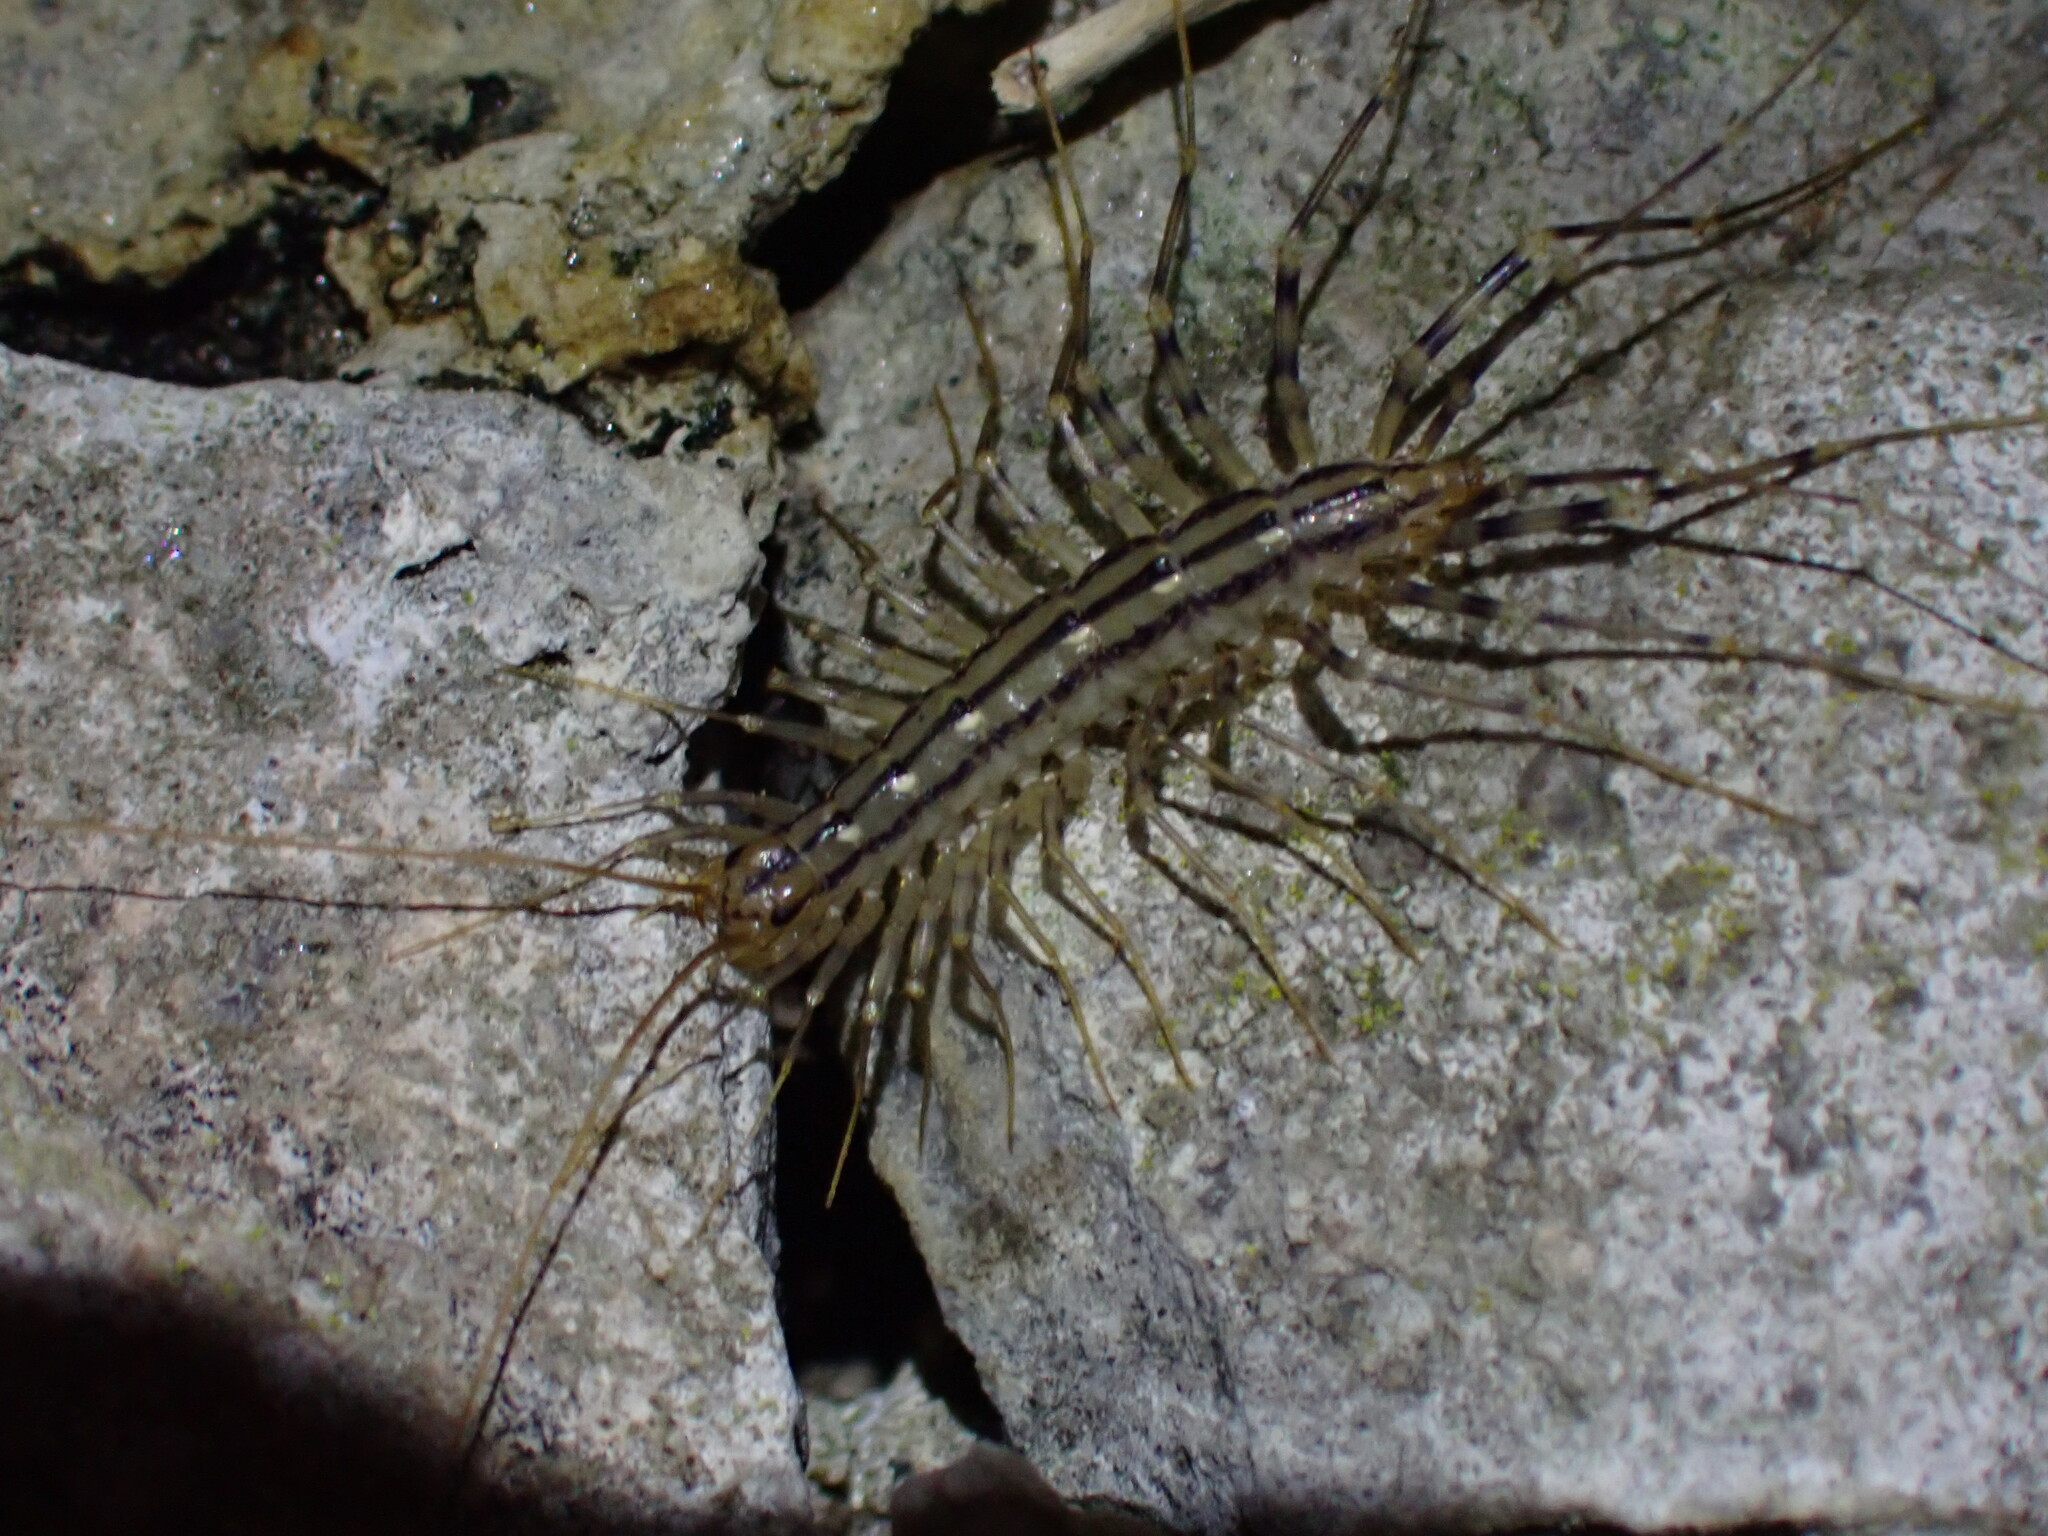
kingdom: Animalia
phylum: Arthropoda
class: Chilopoda
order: Scutigeromorpha
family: Scutigeridae
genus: Scutigera
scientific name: Scutigera coleoptrata
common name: House centipede
